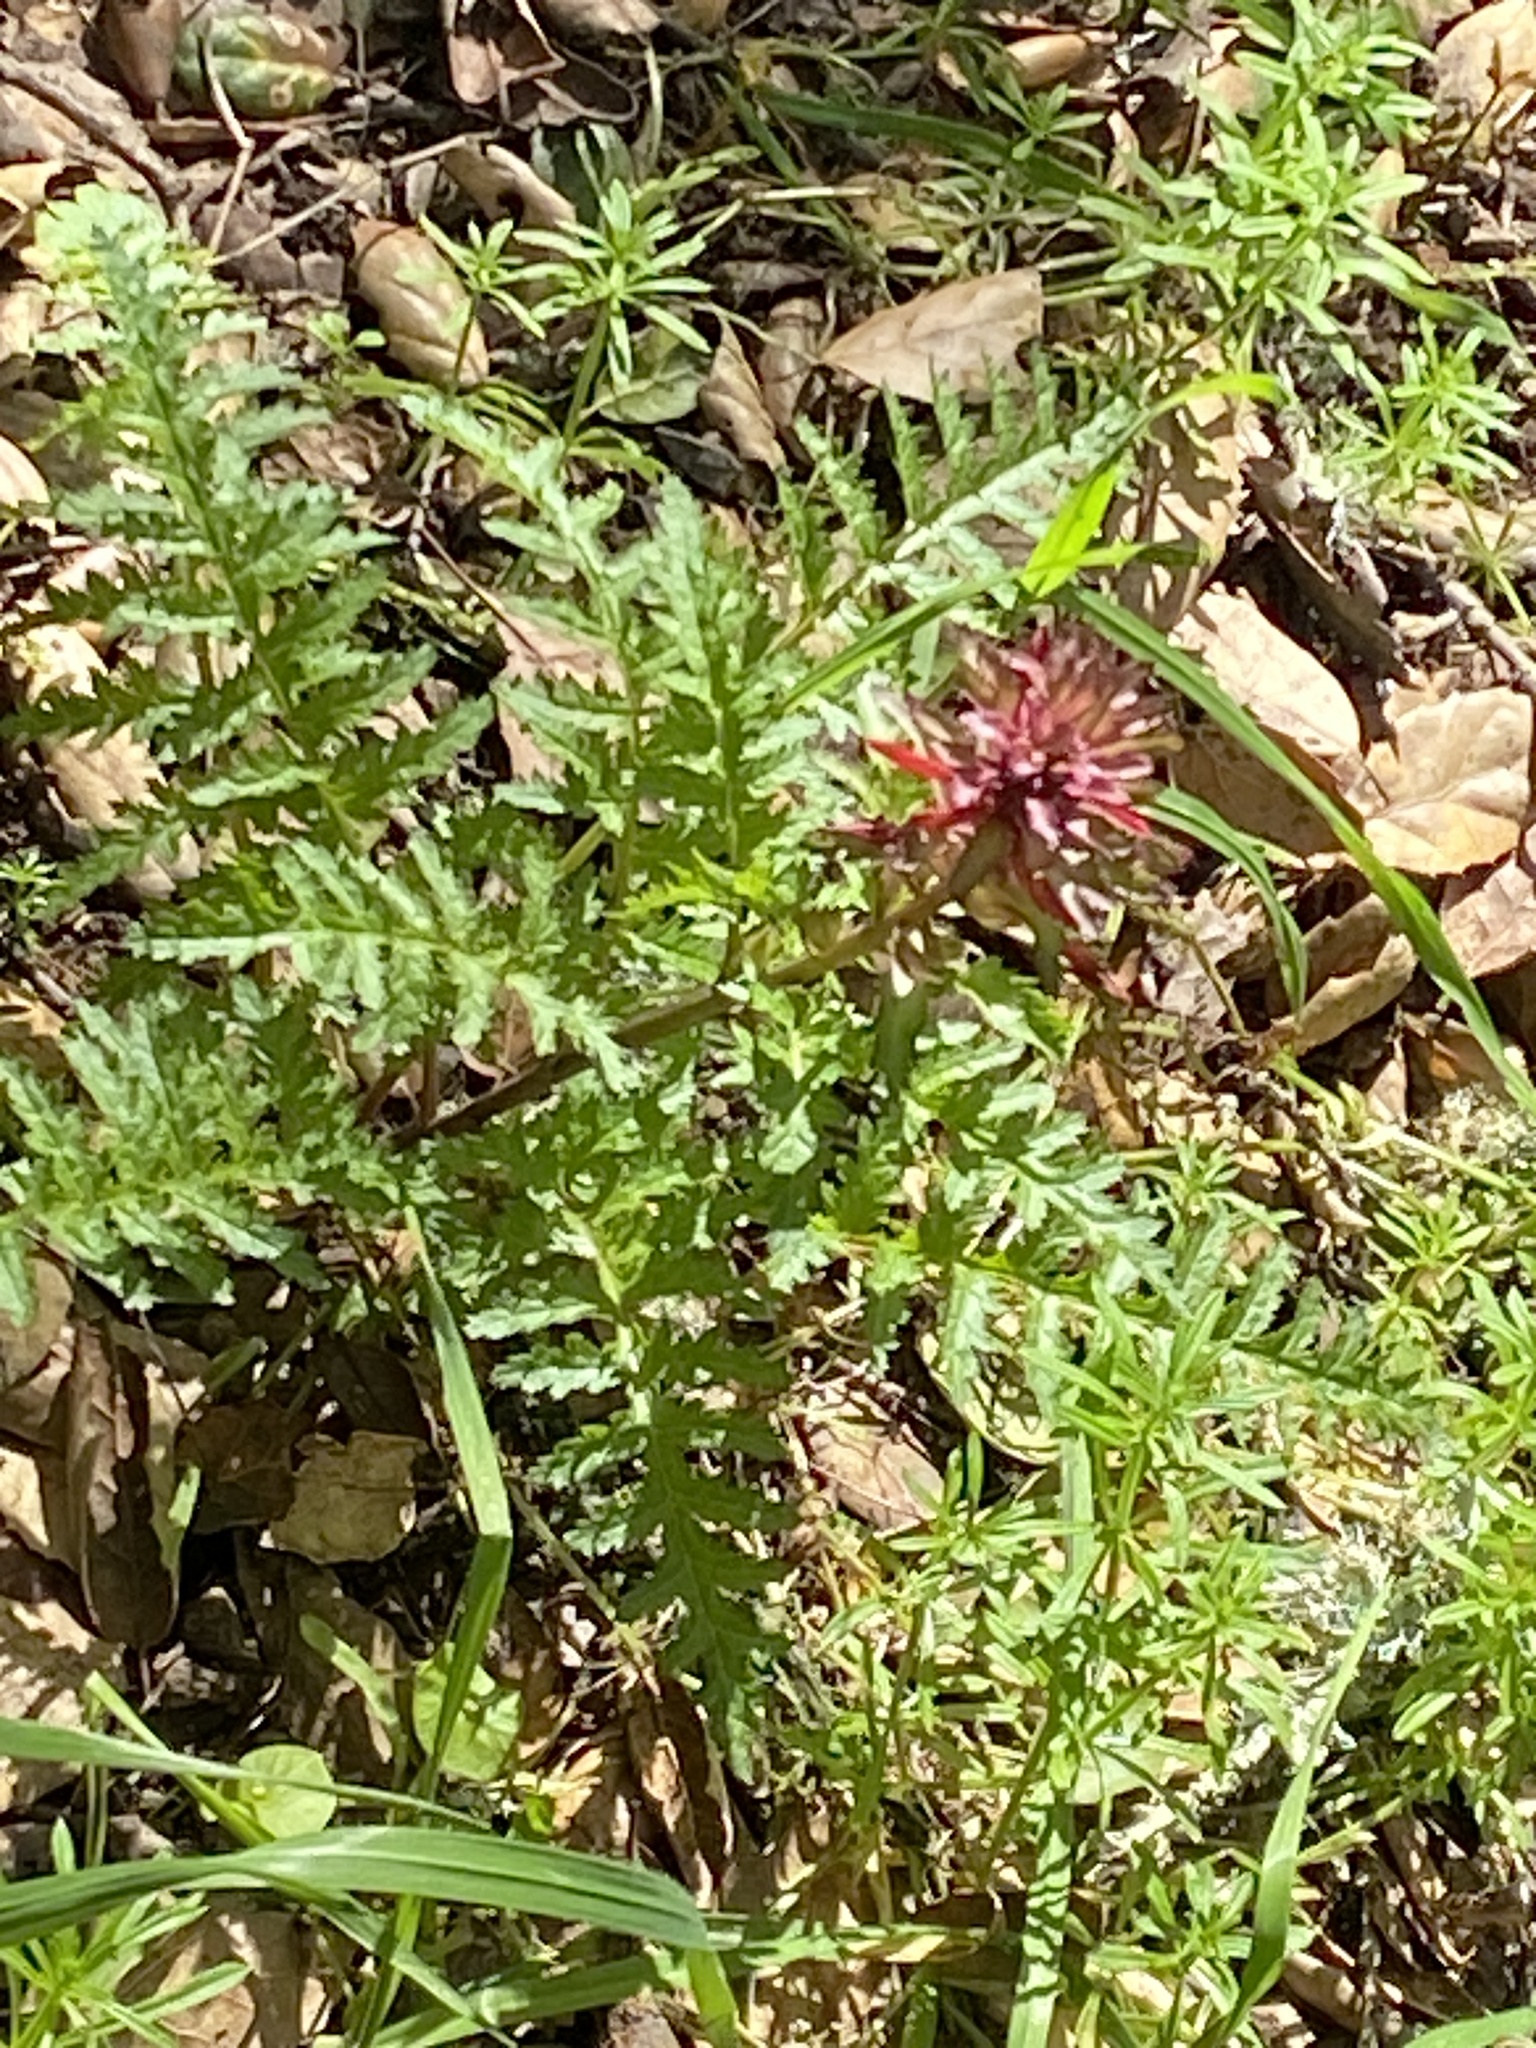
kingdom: Plantae
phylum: Tracheophyta
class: Magnoliopsida
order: Lamiales
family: Orobanchaceae
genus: Pedicularis
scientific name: Pedicularis densiflora
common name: Indian warrior
